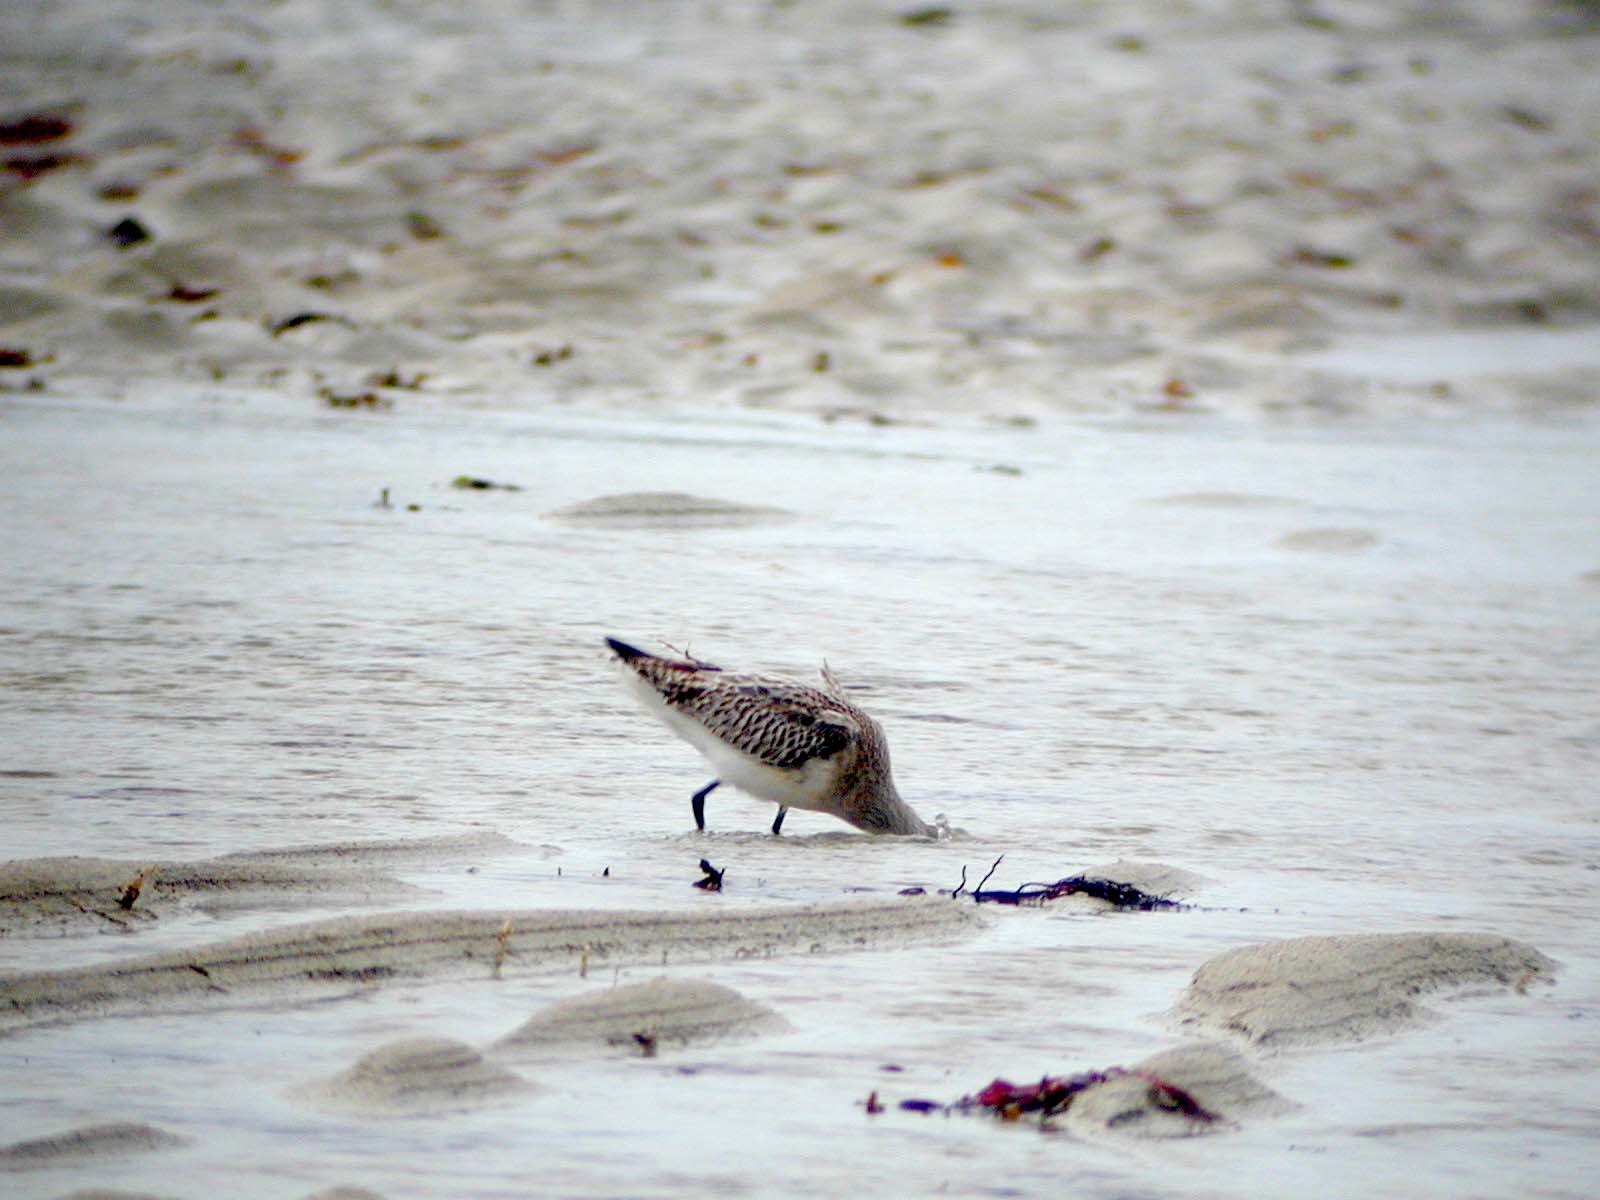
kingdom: Animalia
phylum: Chordata
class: Aves
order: Charadriiformes
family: Scolopacidae
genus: Limosa
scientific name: Limosa lapponica
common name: Bar-tailed godwit
